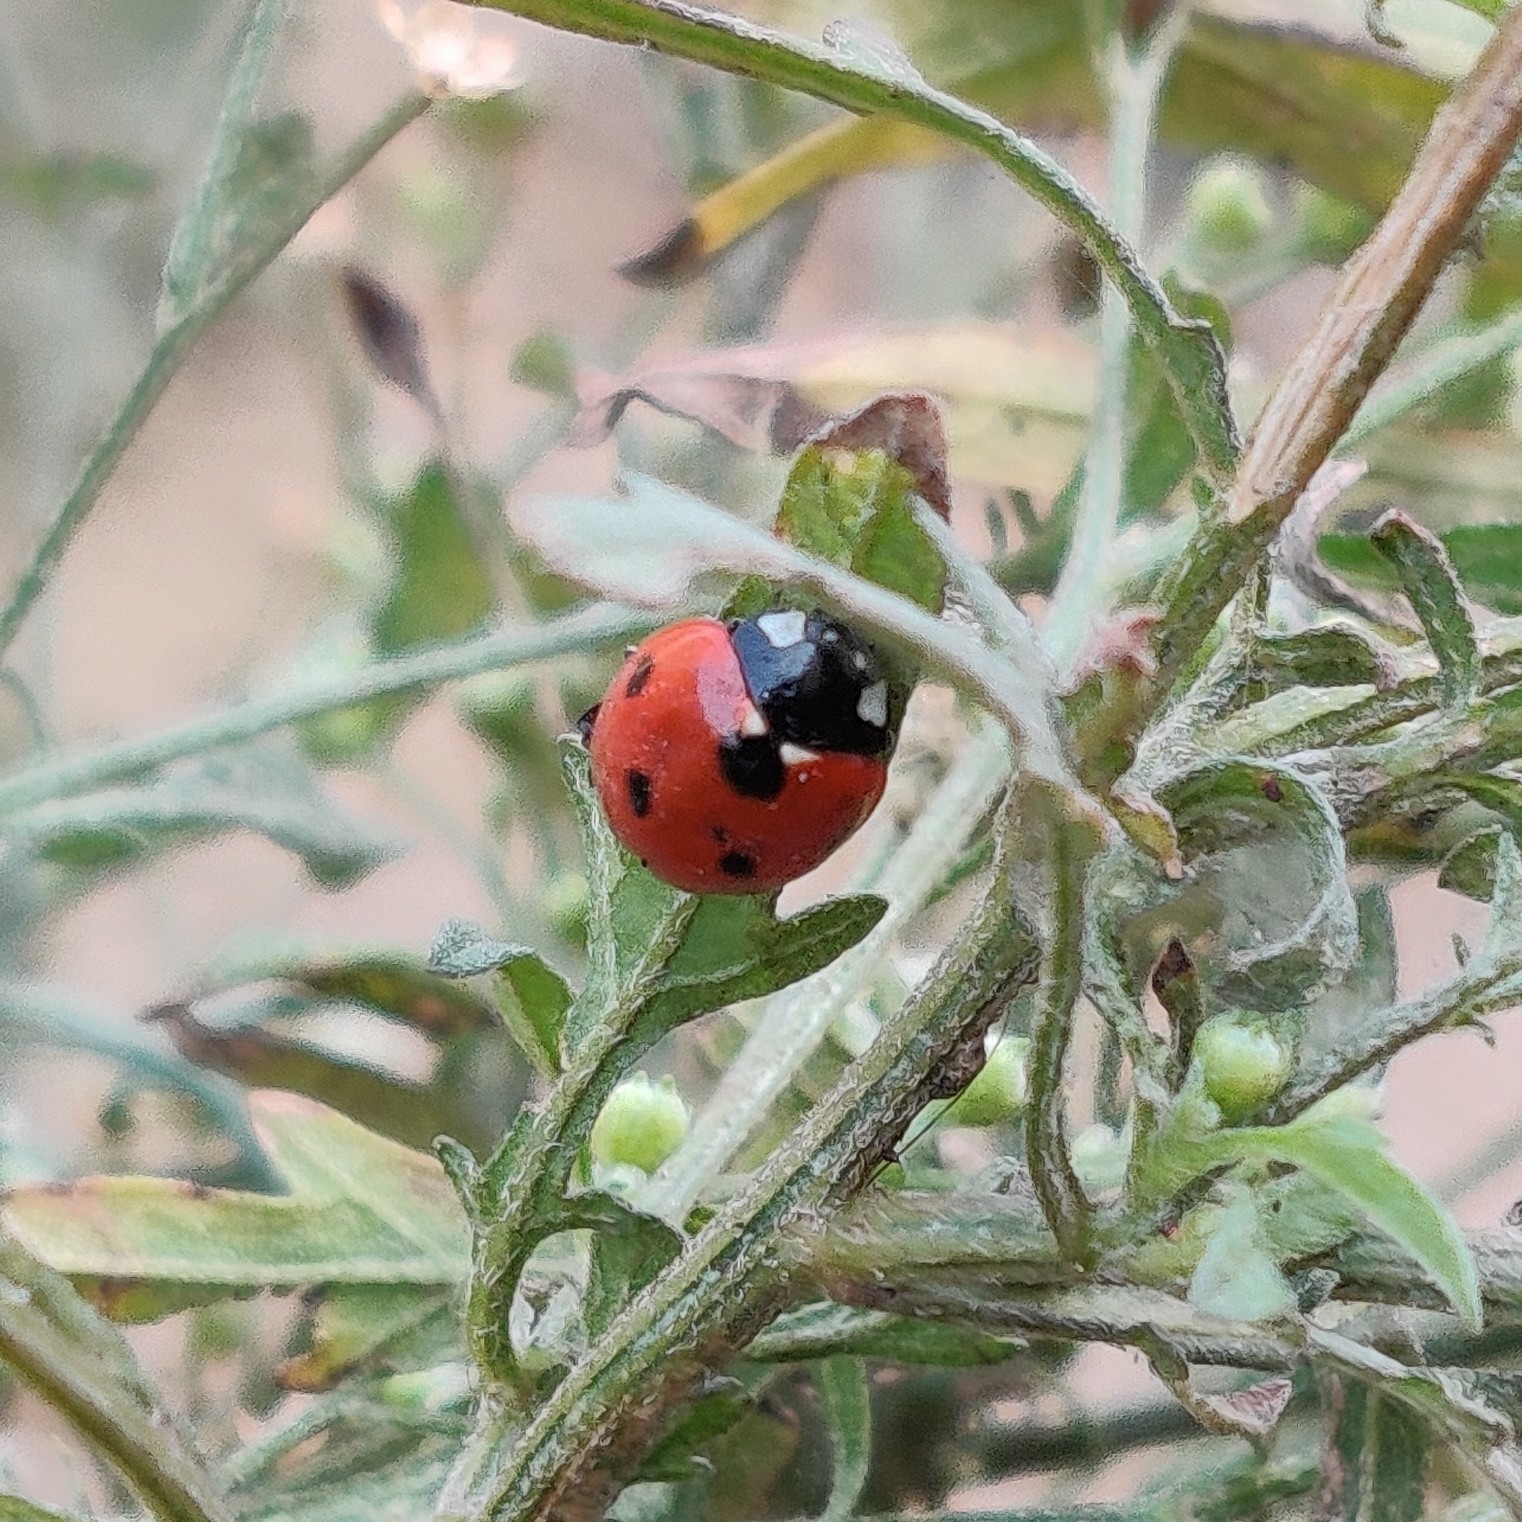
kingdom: Animalia
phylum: Arthropoda
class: Insecta
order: Coleoptera
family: Coccinellidae
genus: Coccinella
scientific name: Coccinella septempunctata
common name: Sevenspotted lady beetle
